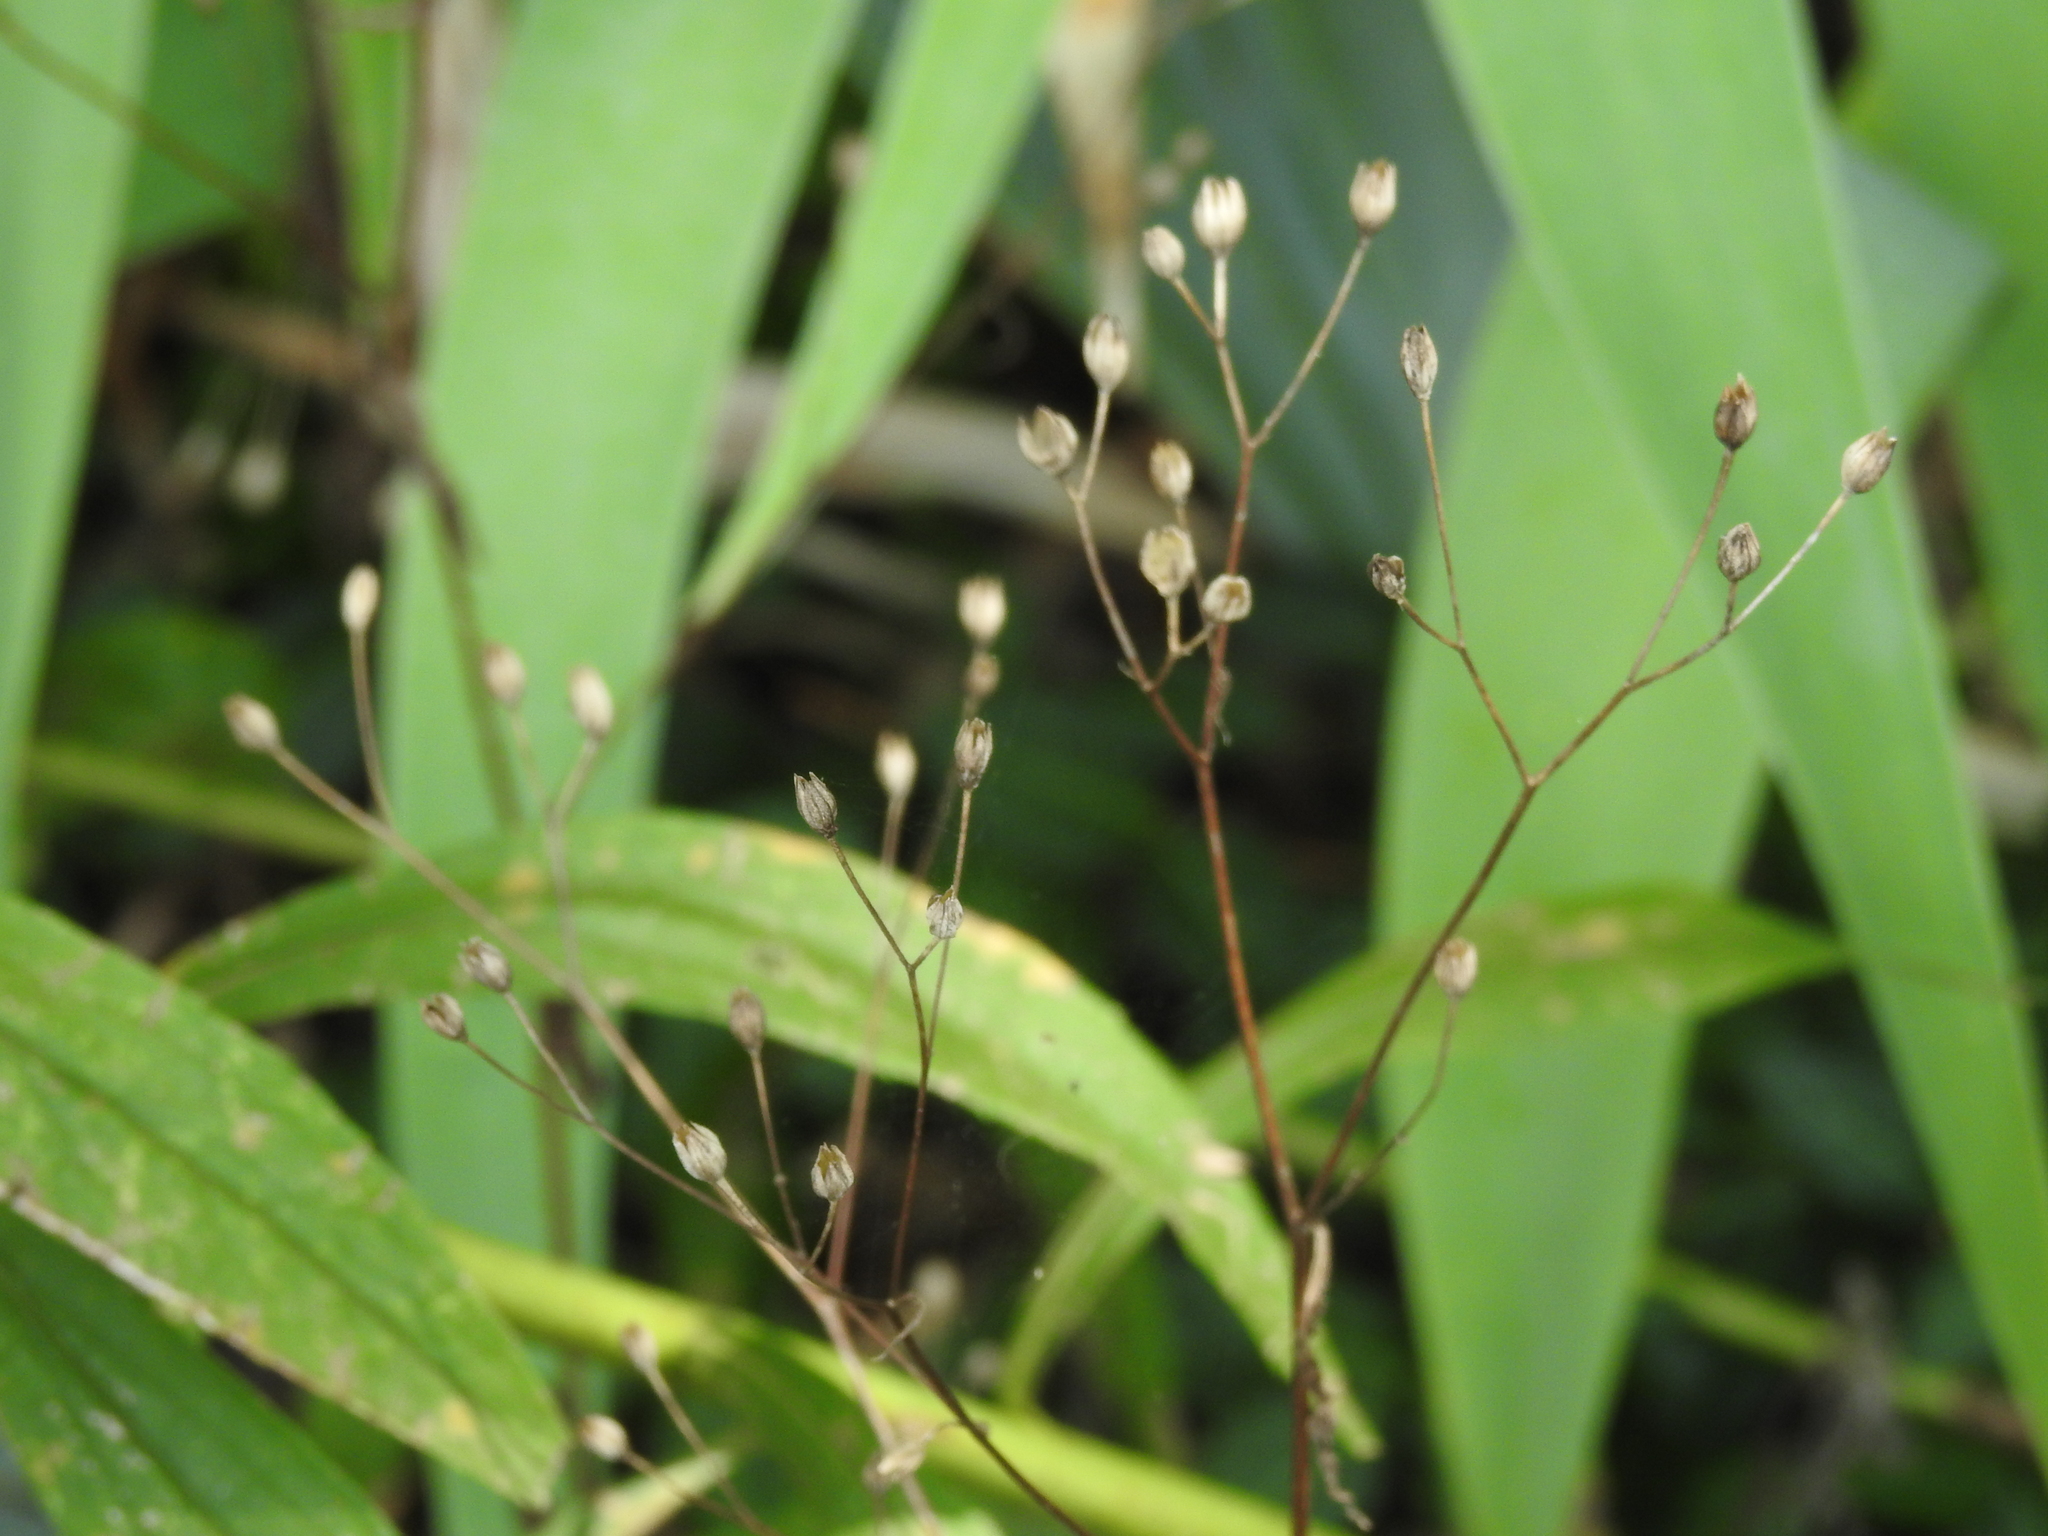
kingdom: Plantae
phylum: Tracheophyta
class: Magnoliopsida
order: Asterales
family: Asteraceae
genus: Lapsana
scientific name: Lapsana communis
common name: Nipplewort
